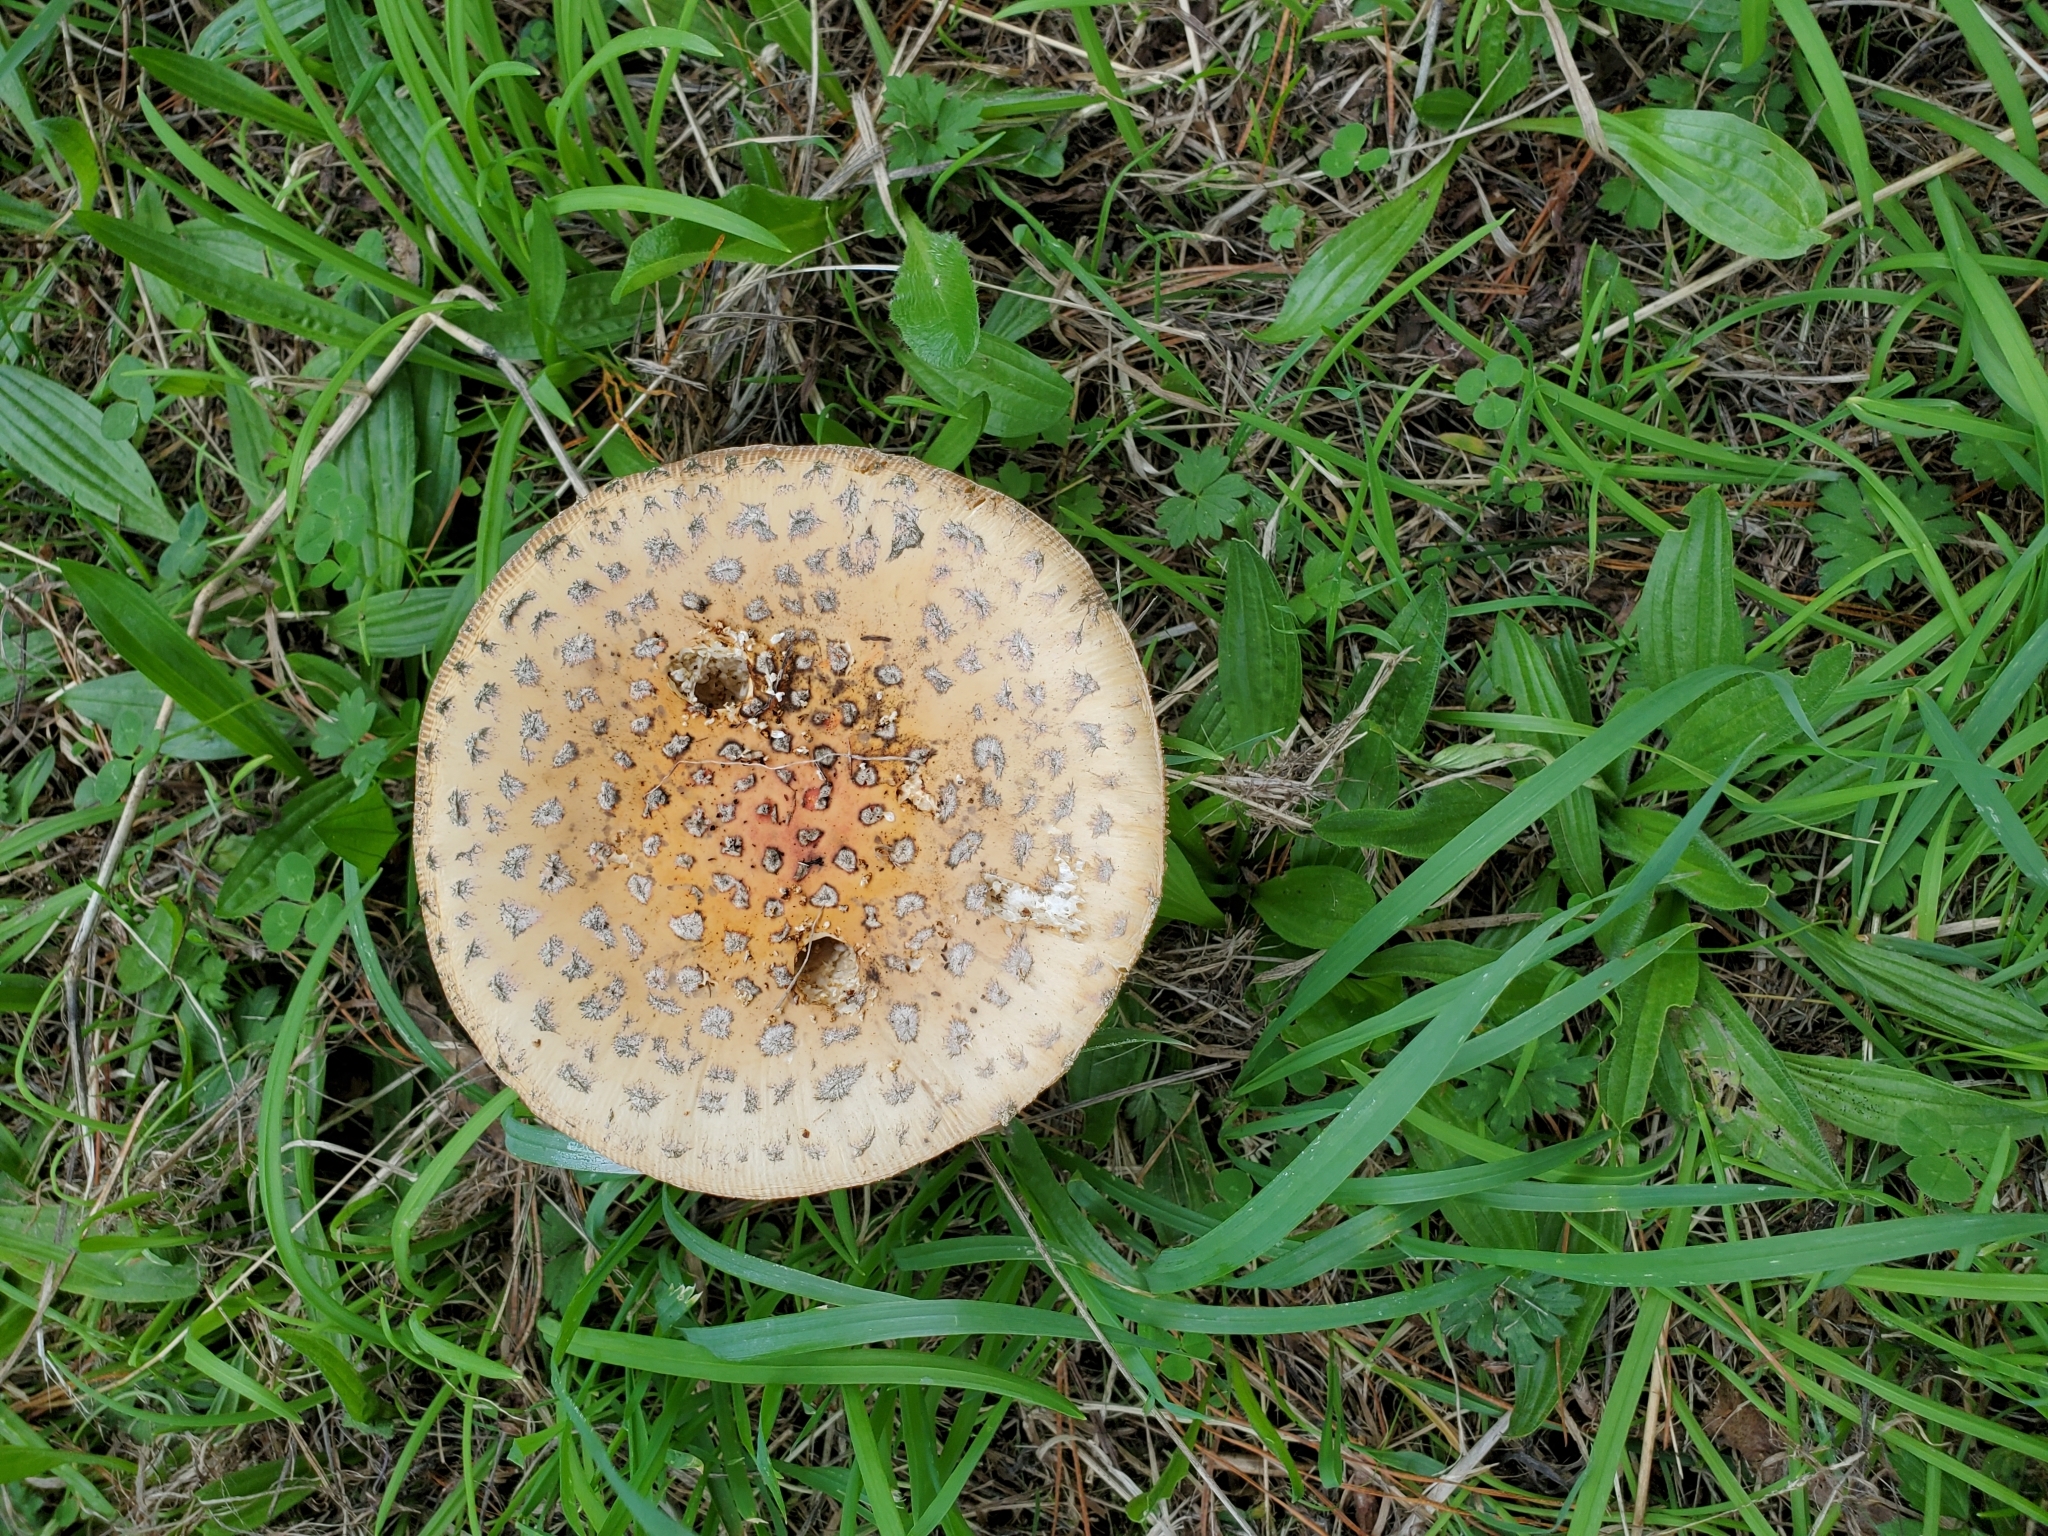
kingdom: Fungi
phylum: Basidiomycota
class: Agaricomycetes
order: Agaricales
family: Amanitaceae
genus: Amanita
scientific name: Amanita muscaria
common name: Fly agaric
